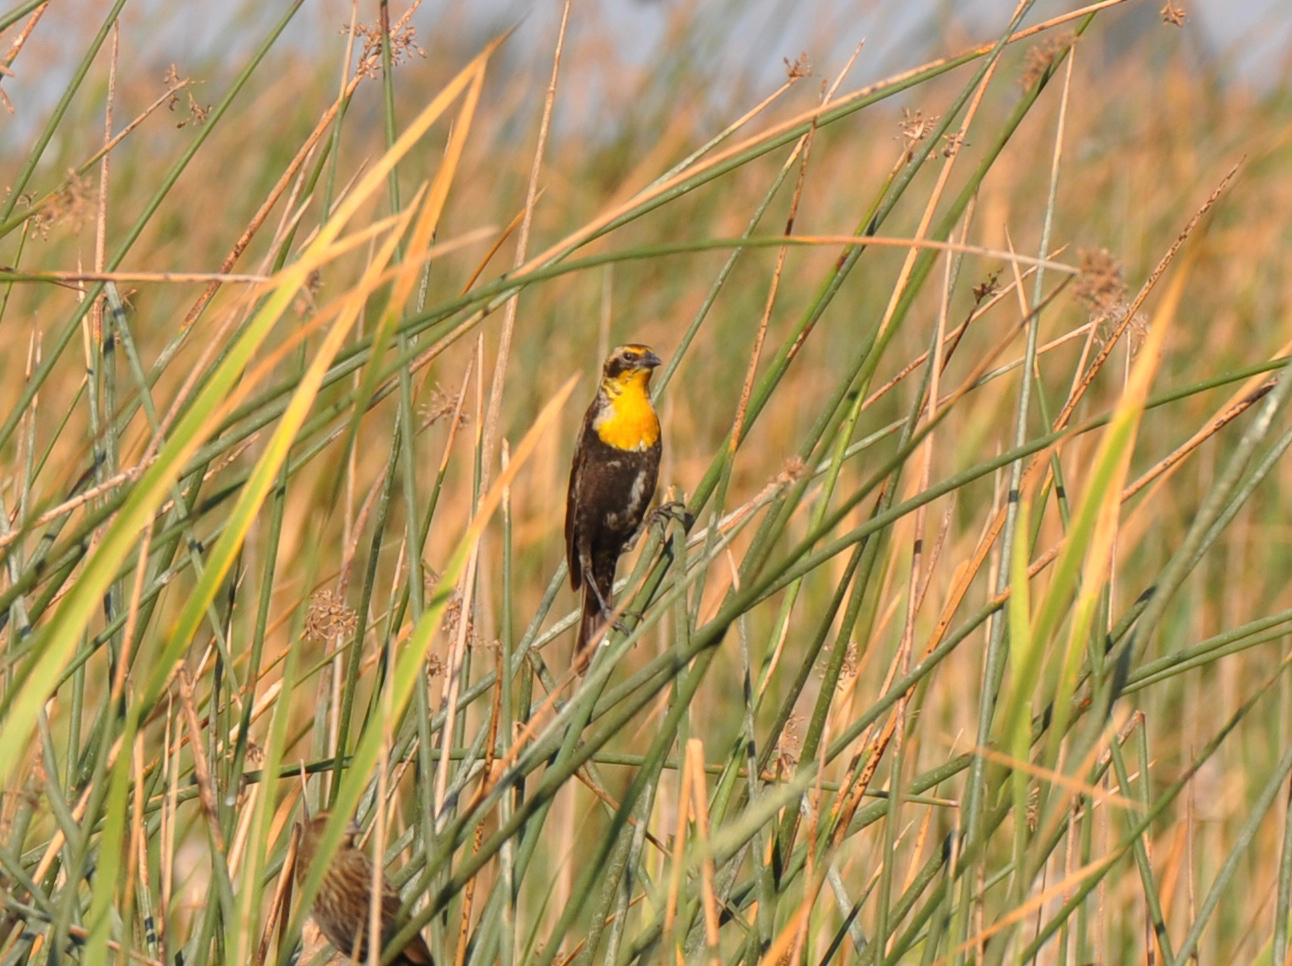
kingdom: Animalia
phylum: Chordata
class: Aves
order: Passeriformes
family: Icteridae
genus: Xanthocephalus
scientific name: Xanthocephalus xanthocephalus
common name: Yellow-headed blackbird
